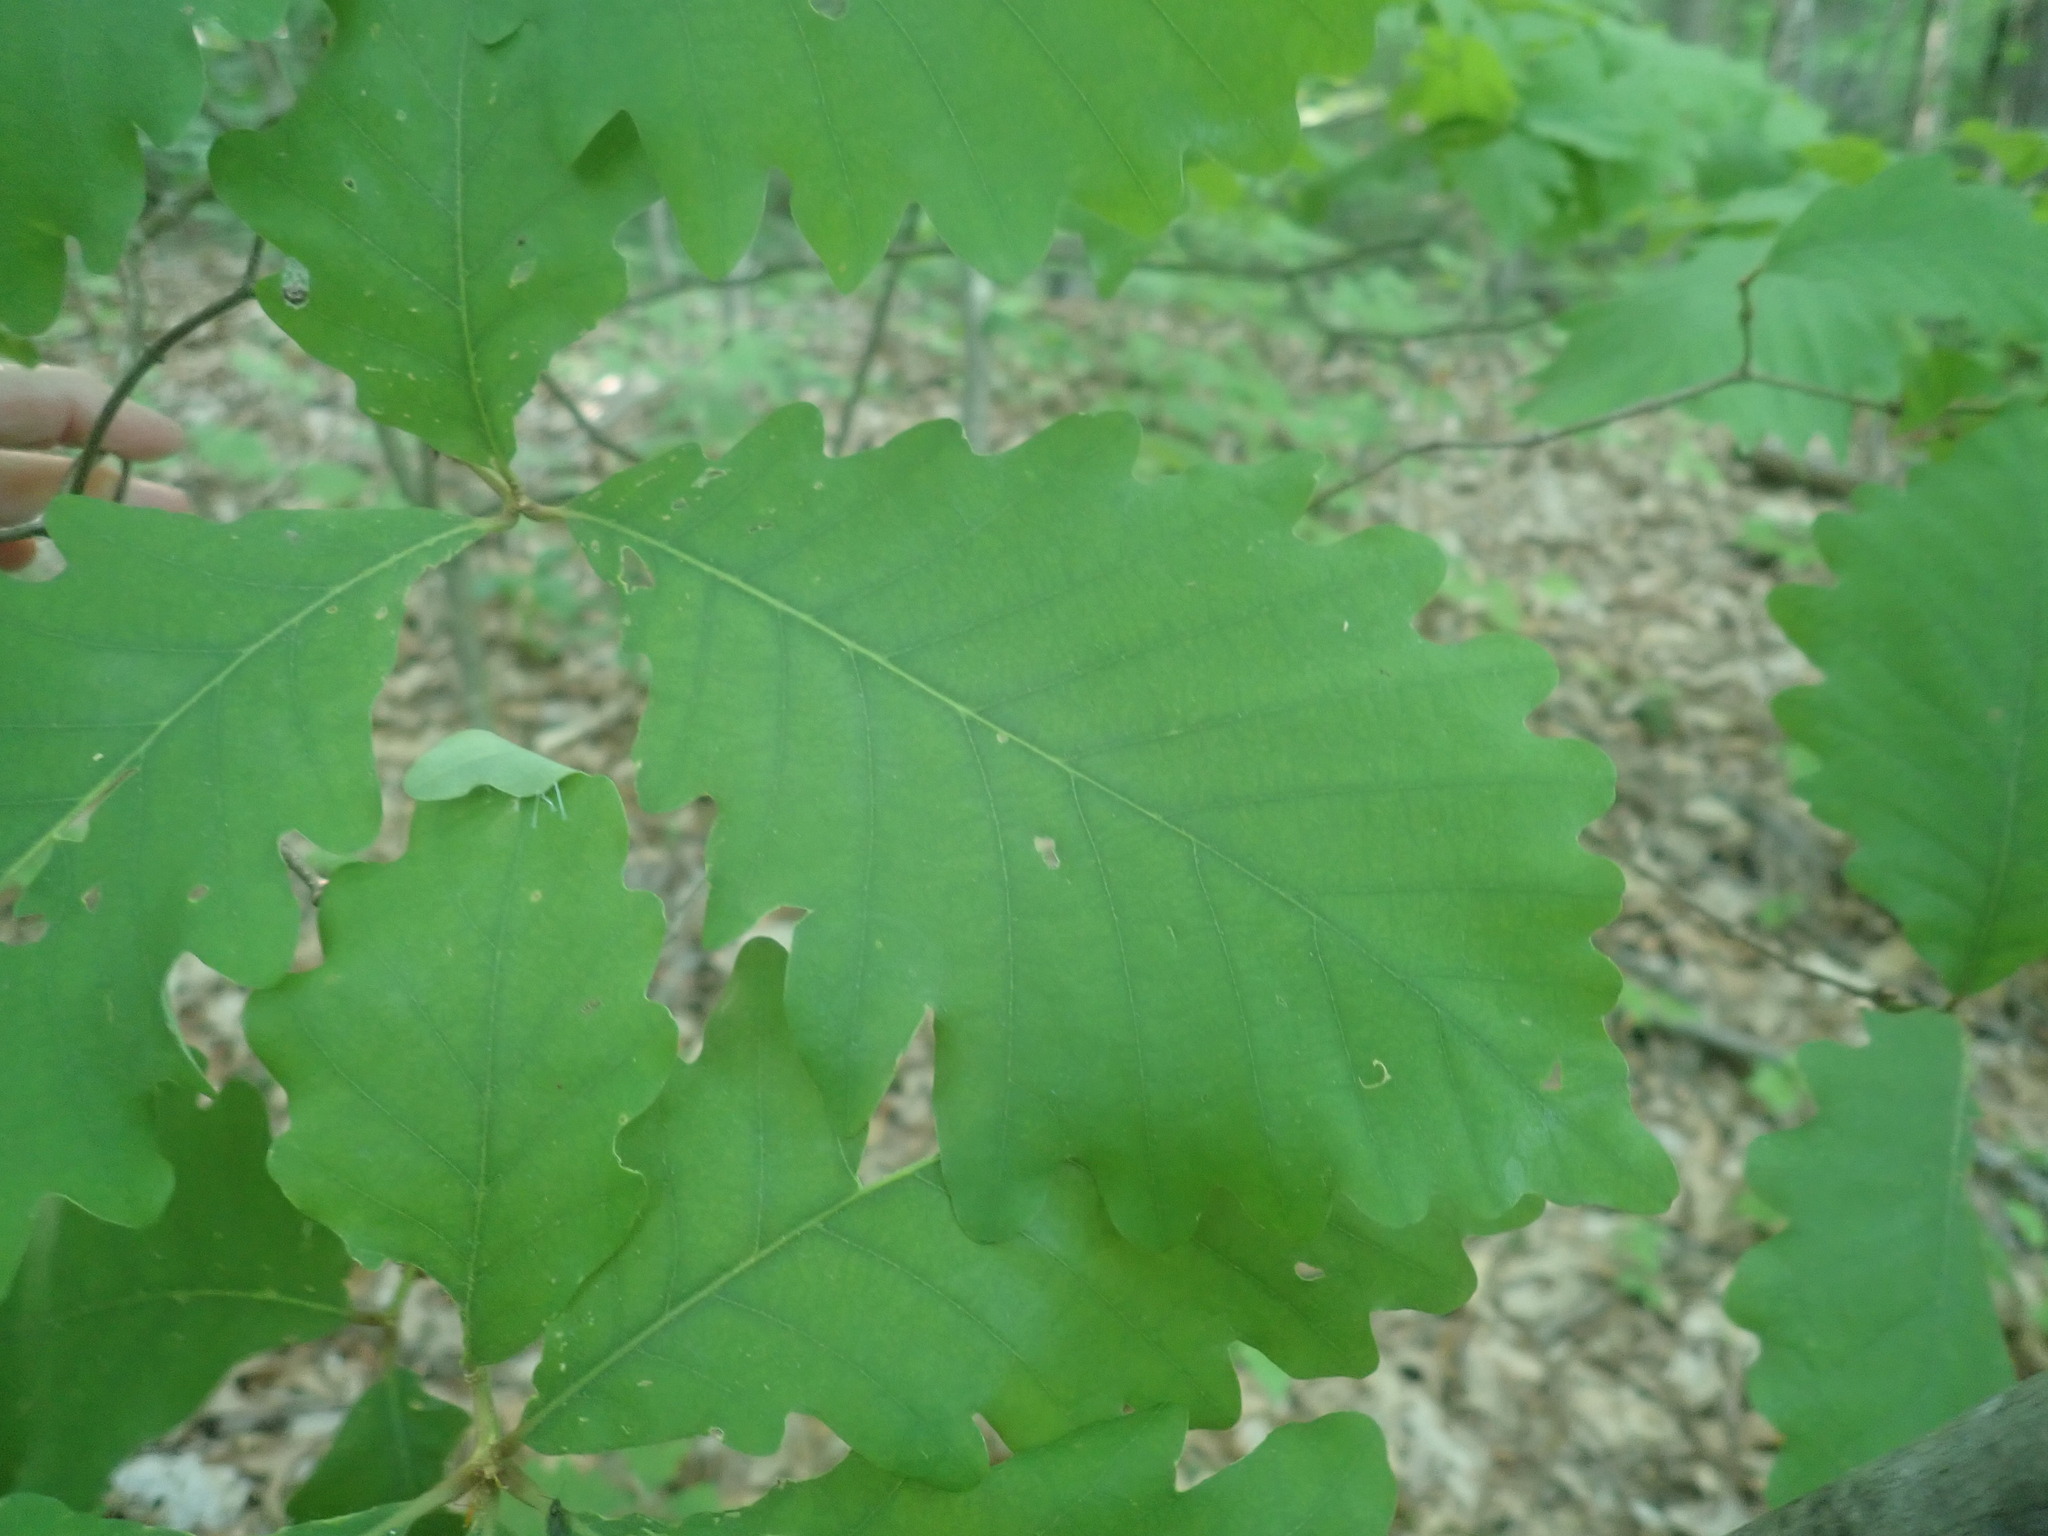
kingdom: Plantae
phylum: Tracheophyta
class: Magnoliopsida
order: Fagales
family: Fagaceae
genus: Quercus
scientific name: Quercus montana
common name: Chestnut oak
